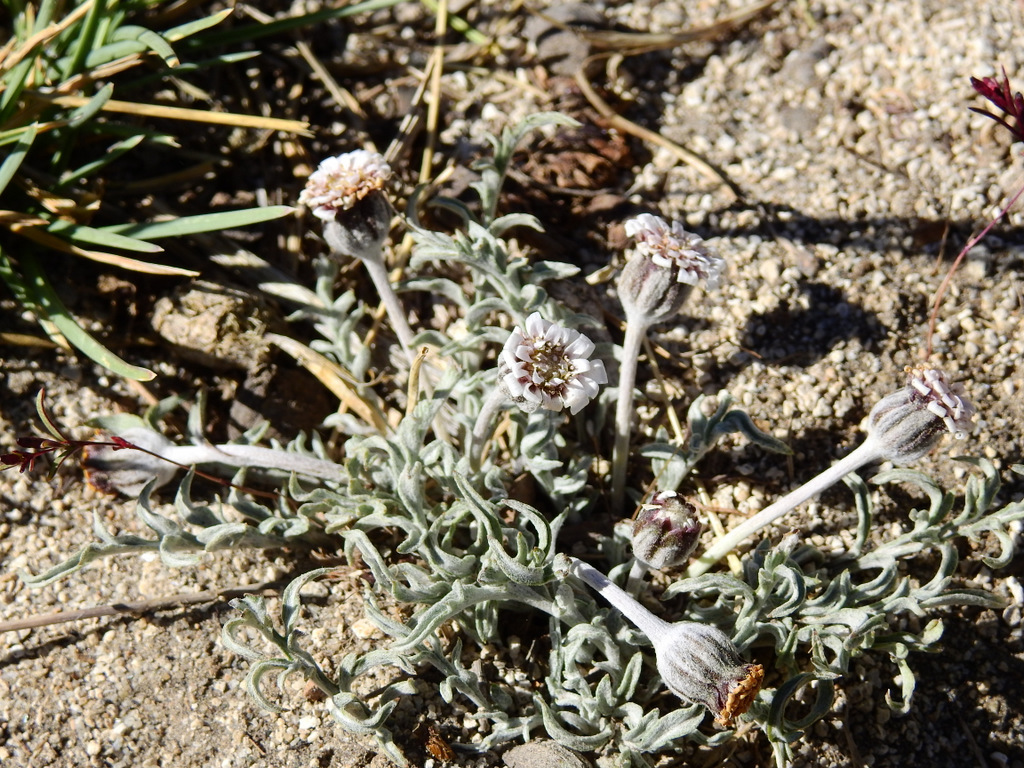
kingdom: Plantae
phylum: Tracheophyta
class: Magnoliopsida
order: Asterales
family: Asteraceae
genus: Leucheria
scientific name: Leucheria candidissima
